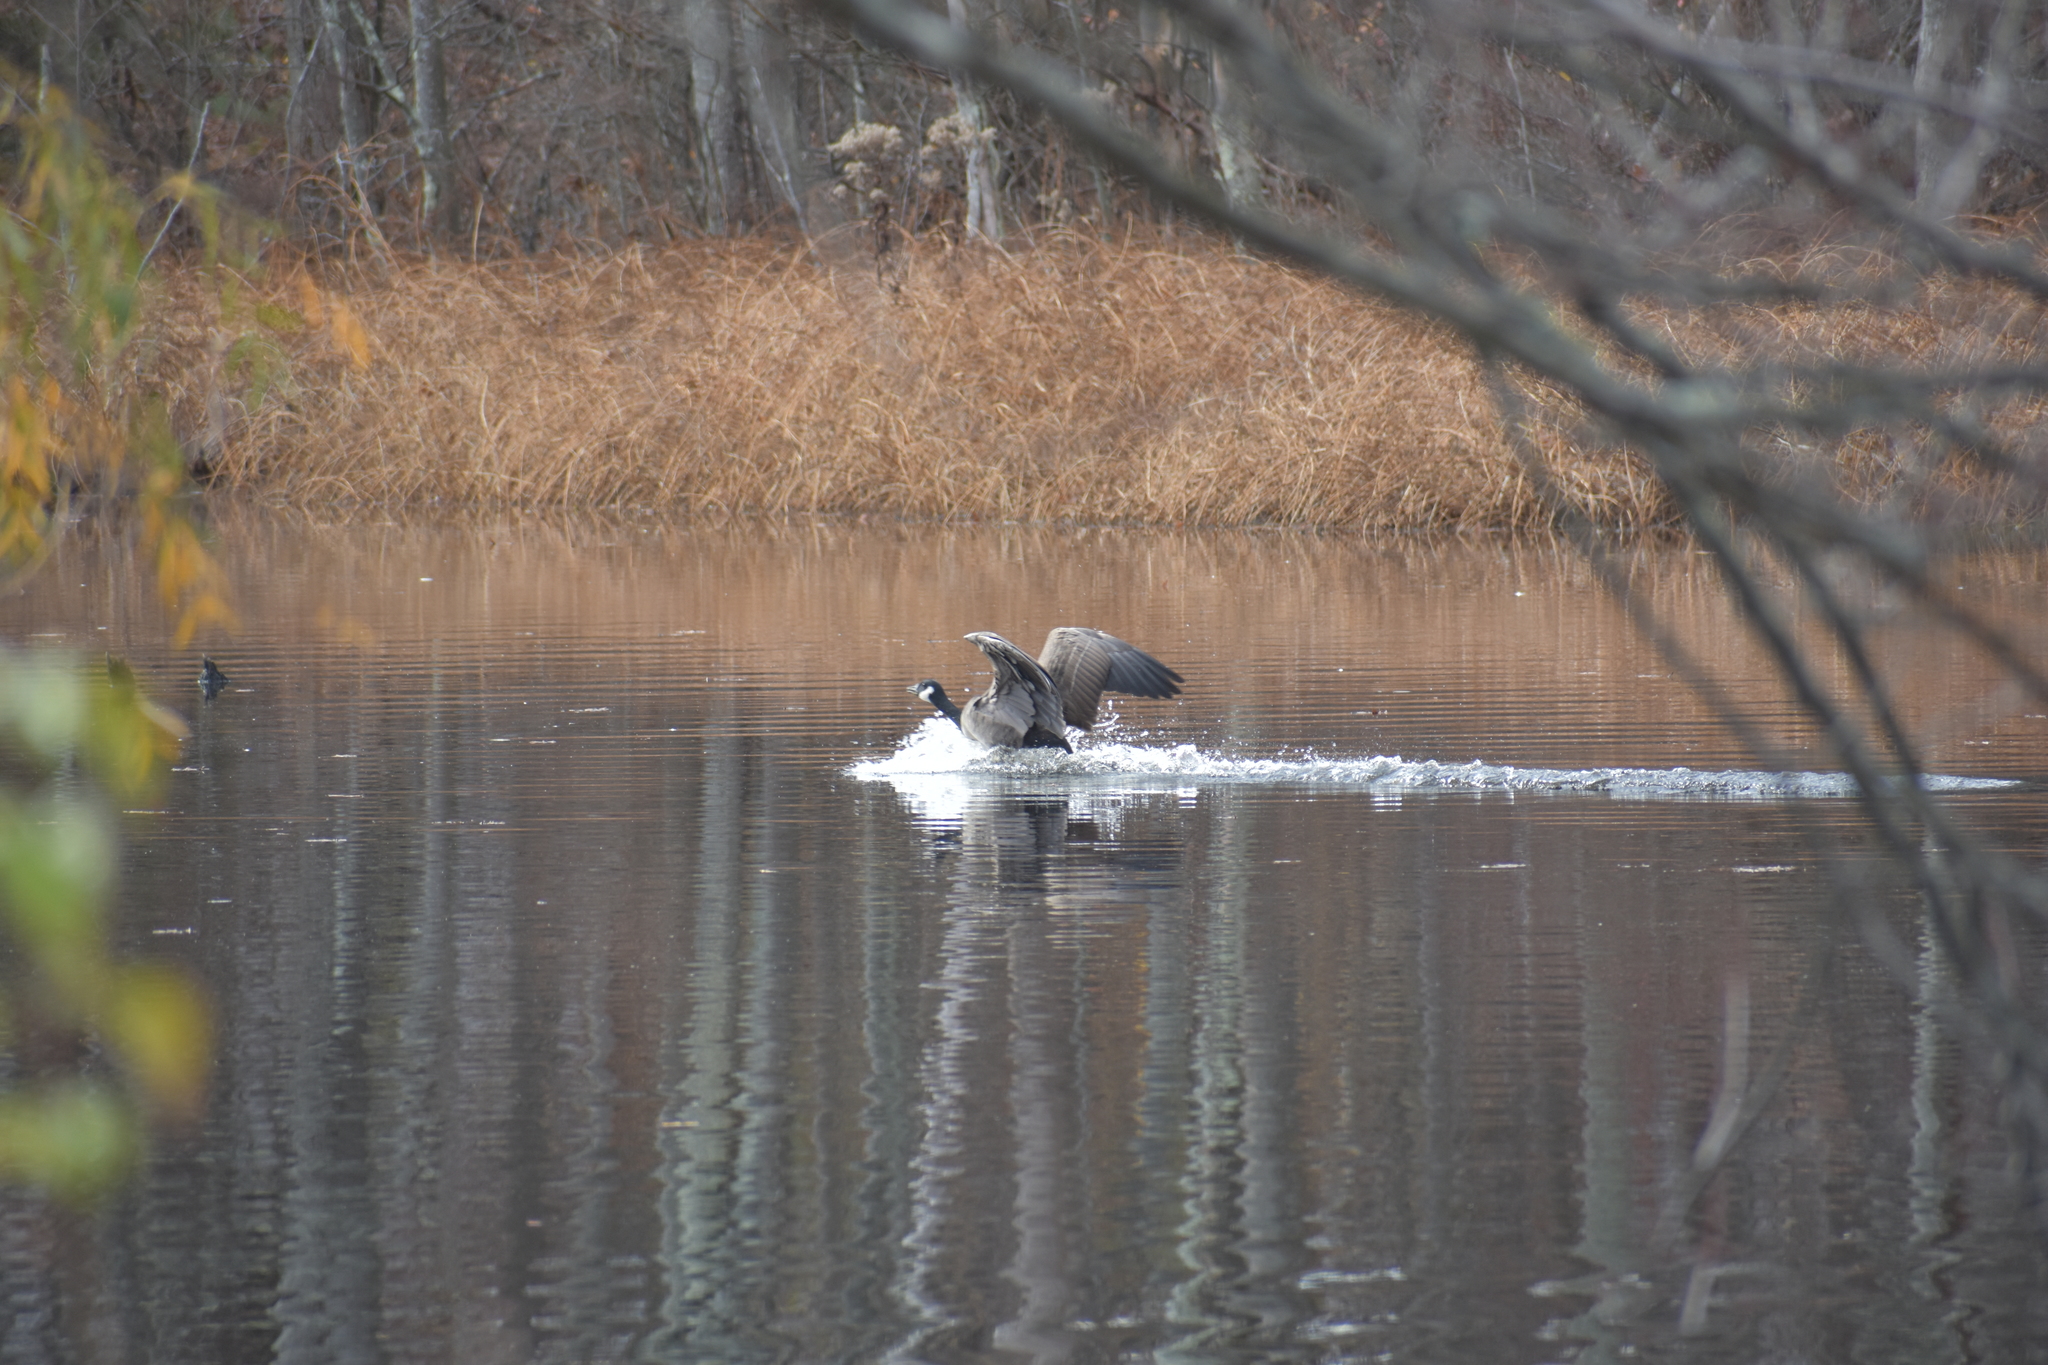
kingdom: Animalia
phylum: Chordata
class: Aves
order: Anseriformes
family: Anatidae
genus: Branta
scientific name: Branta canadensis
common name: Canada goose
